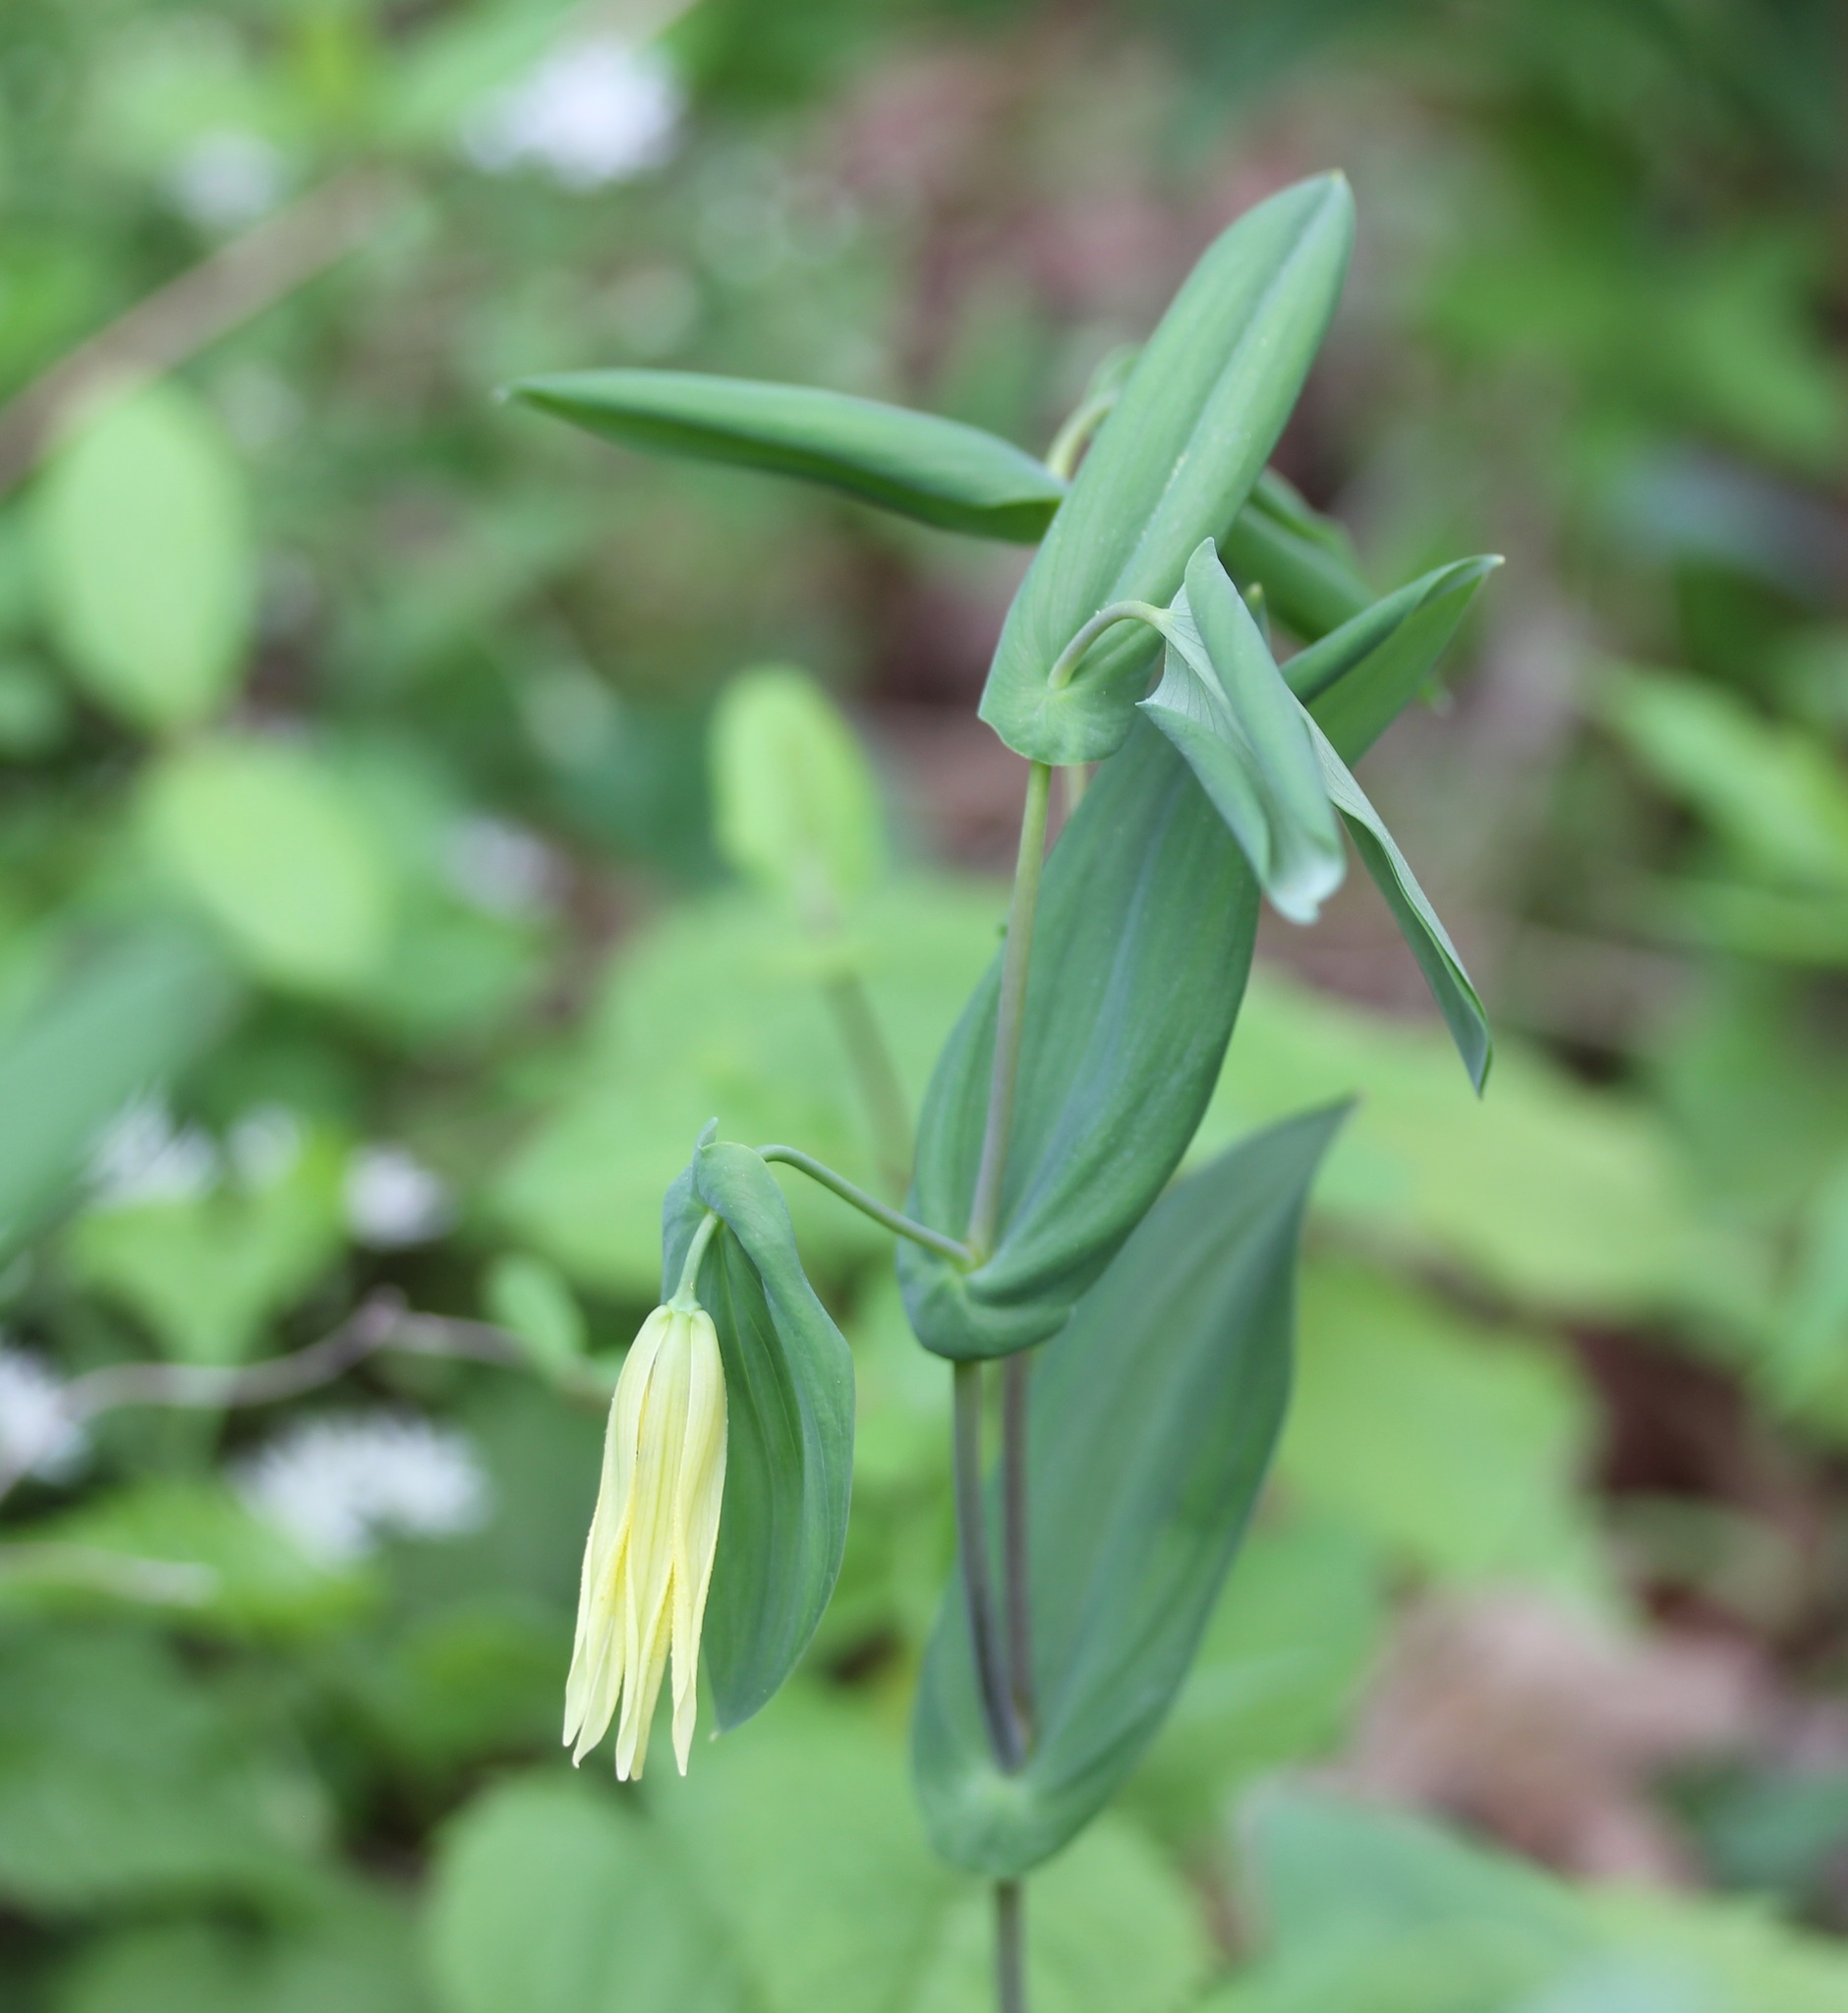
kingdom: Plantae
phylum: Tracheophyta
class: Liliopsida
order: Liliales
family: Colchicaceae
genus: Uvularia
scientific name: Uvularia perfoliata
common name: Perfoliate bellwort
